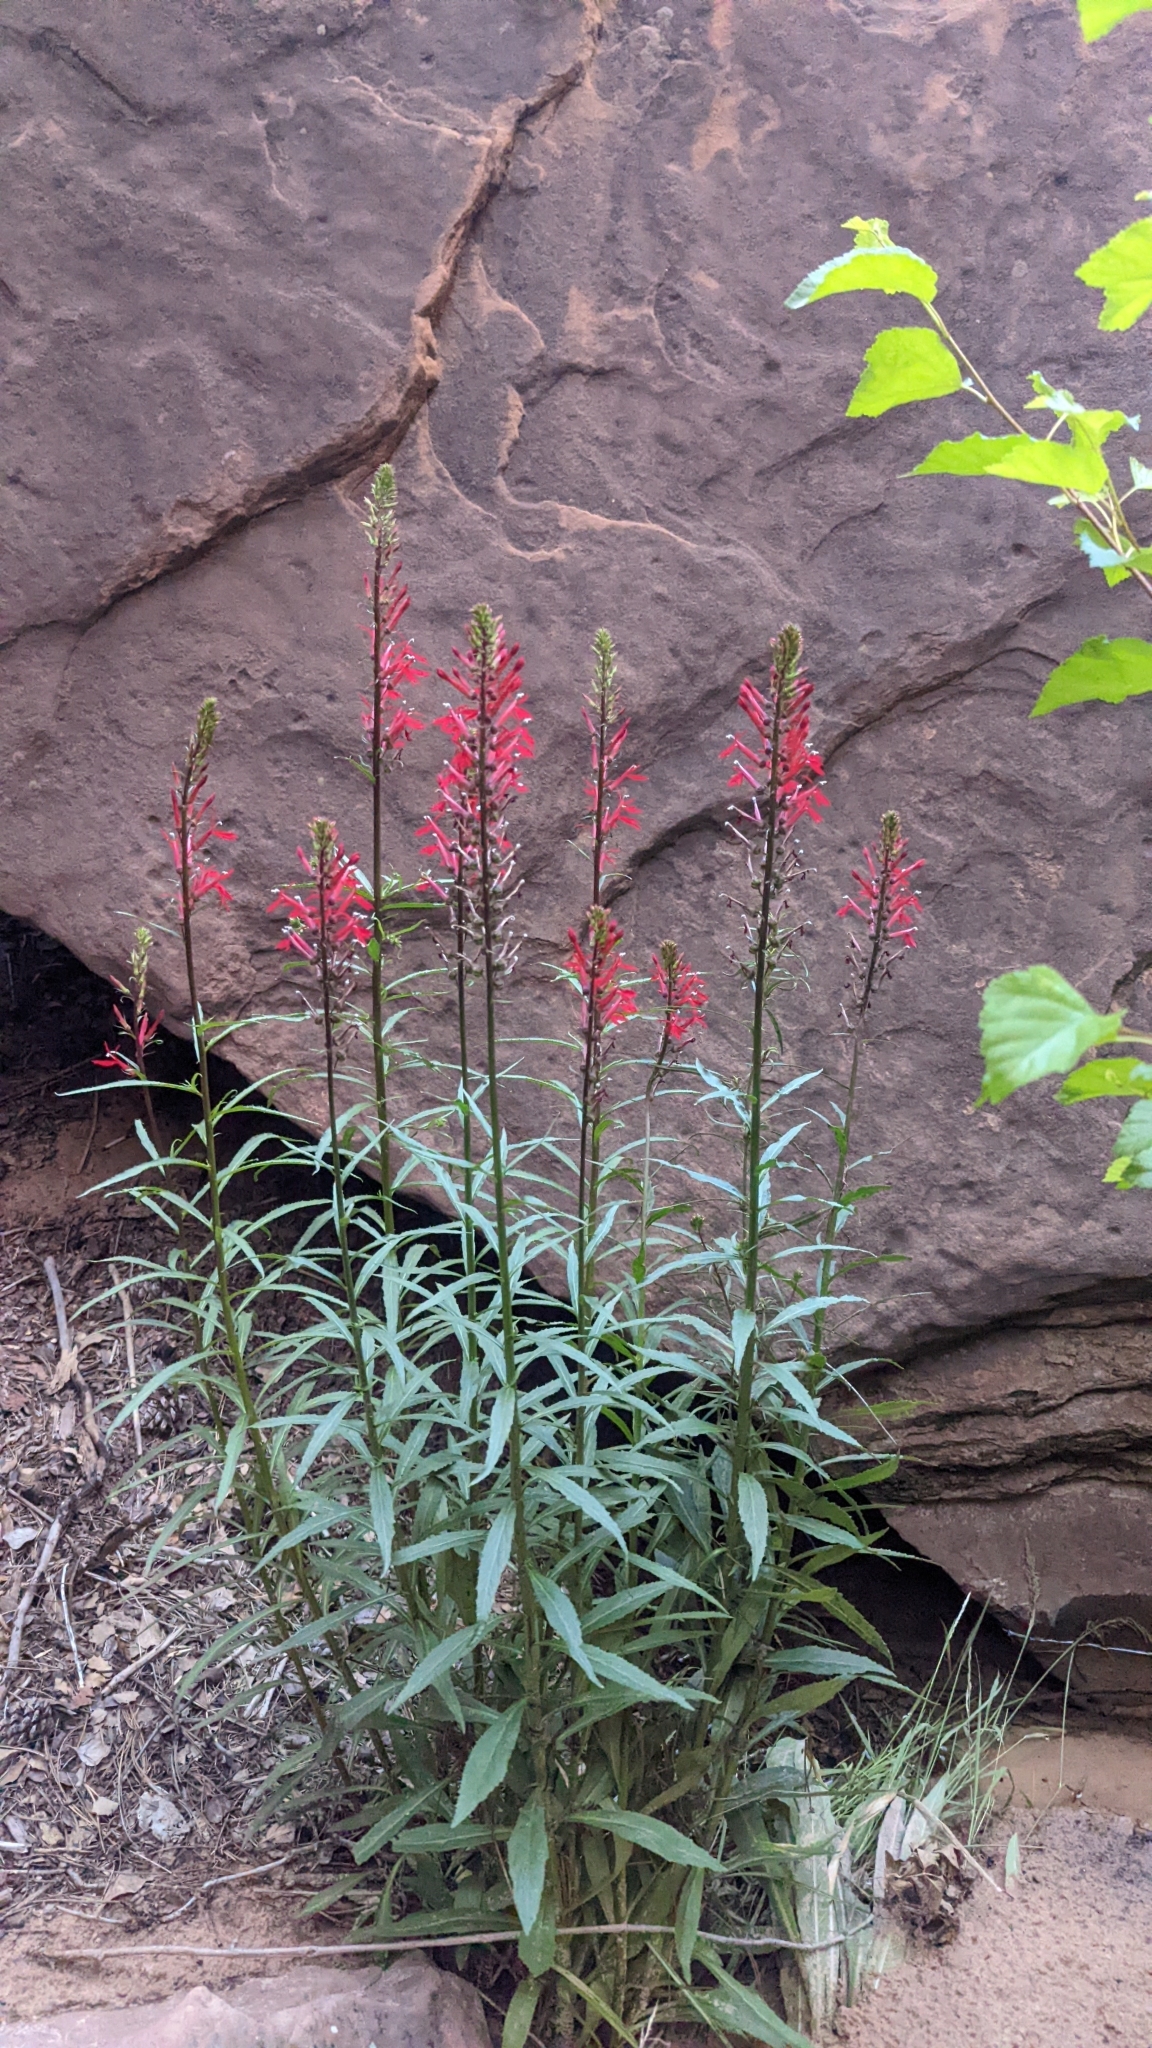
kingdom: Plantae
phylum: Tracheophyta
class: Magnoliopsida
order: Asterales
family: Campanulaceae
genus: Lobelia
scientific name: Lobelia cardinalis
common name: Cardinal flower
